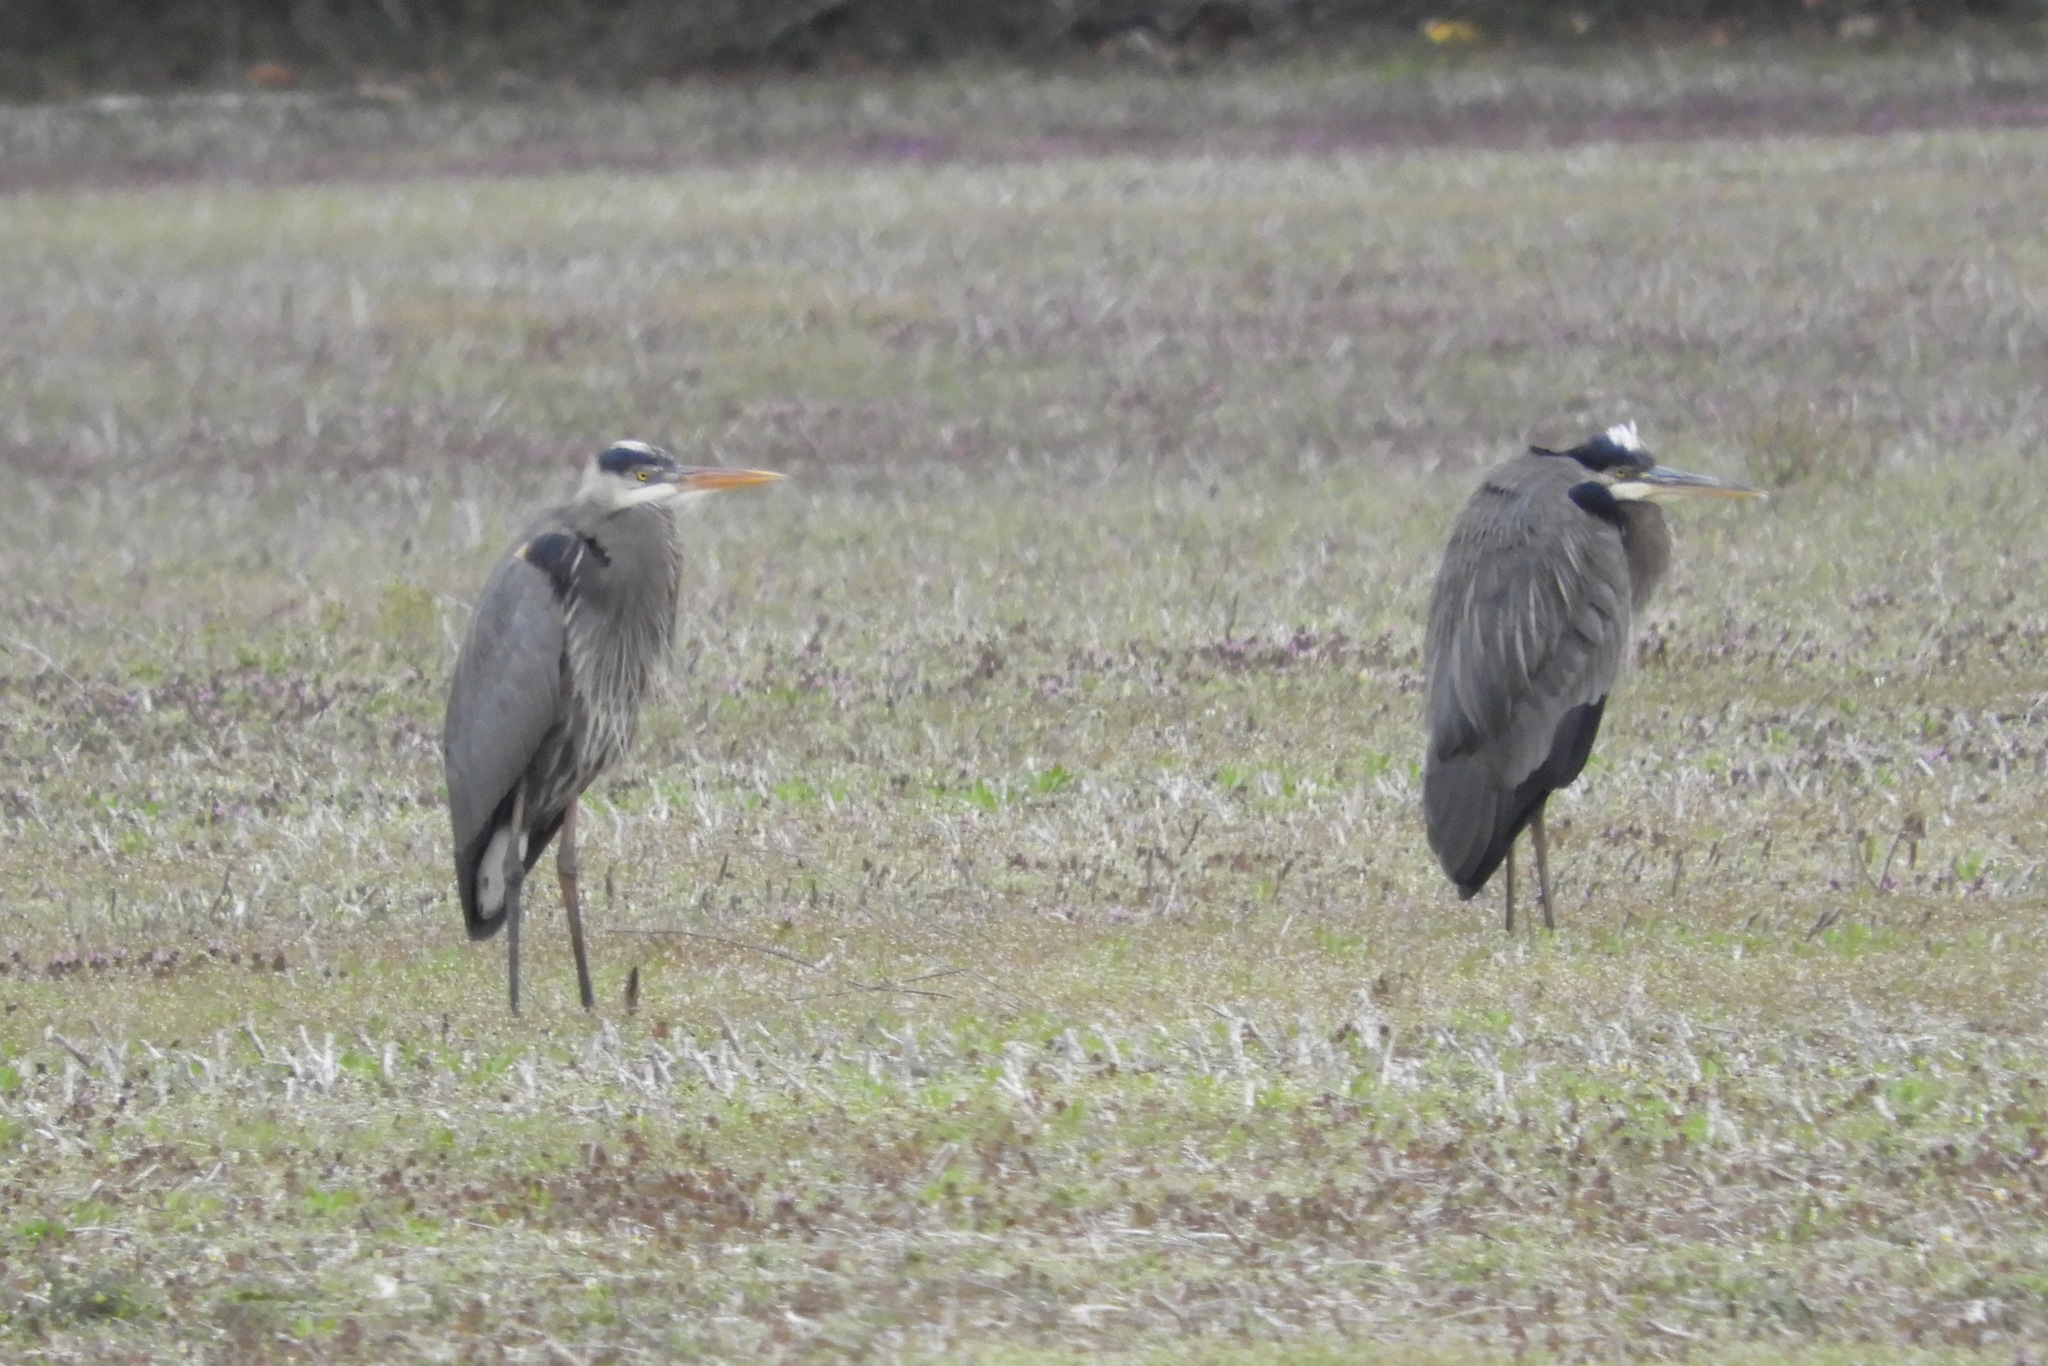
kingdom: Animalia
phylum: Chordata
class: Aves
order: Pelecaniformes
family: Ardeidae
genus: Ardea
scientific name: Ardea herodias
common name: Great blue heron
